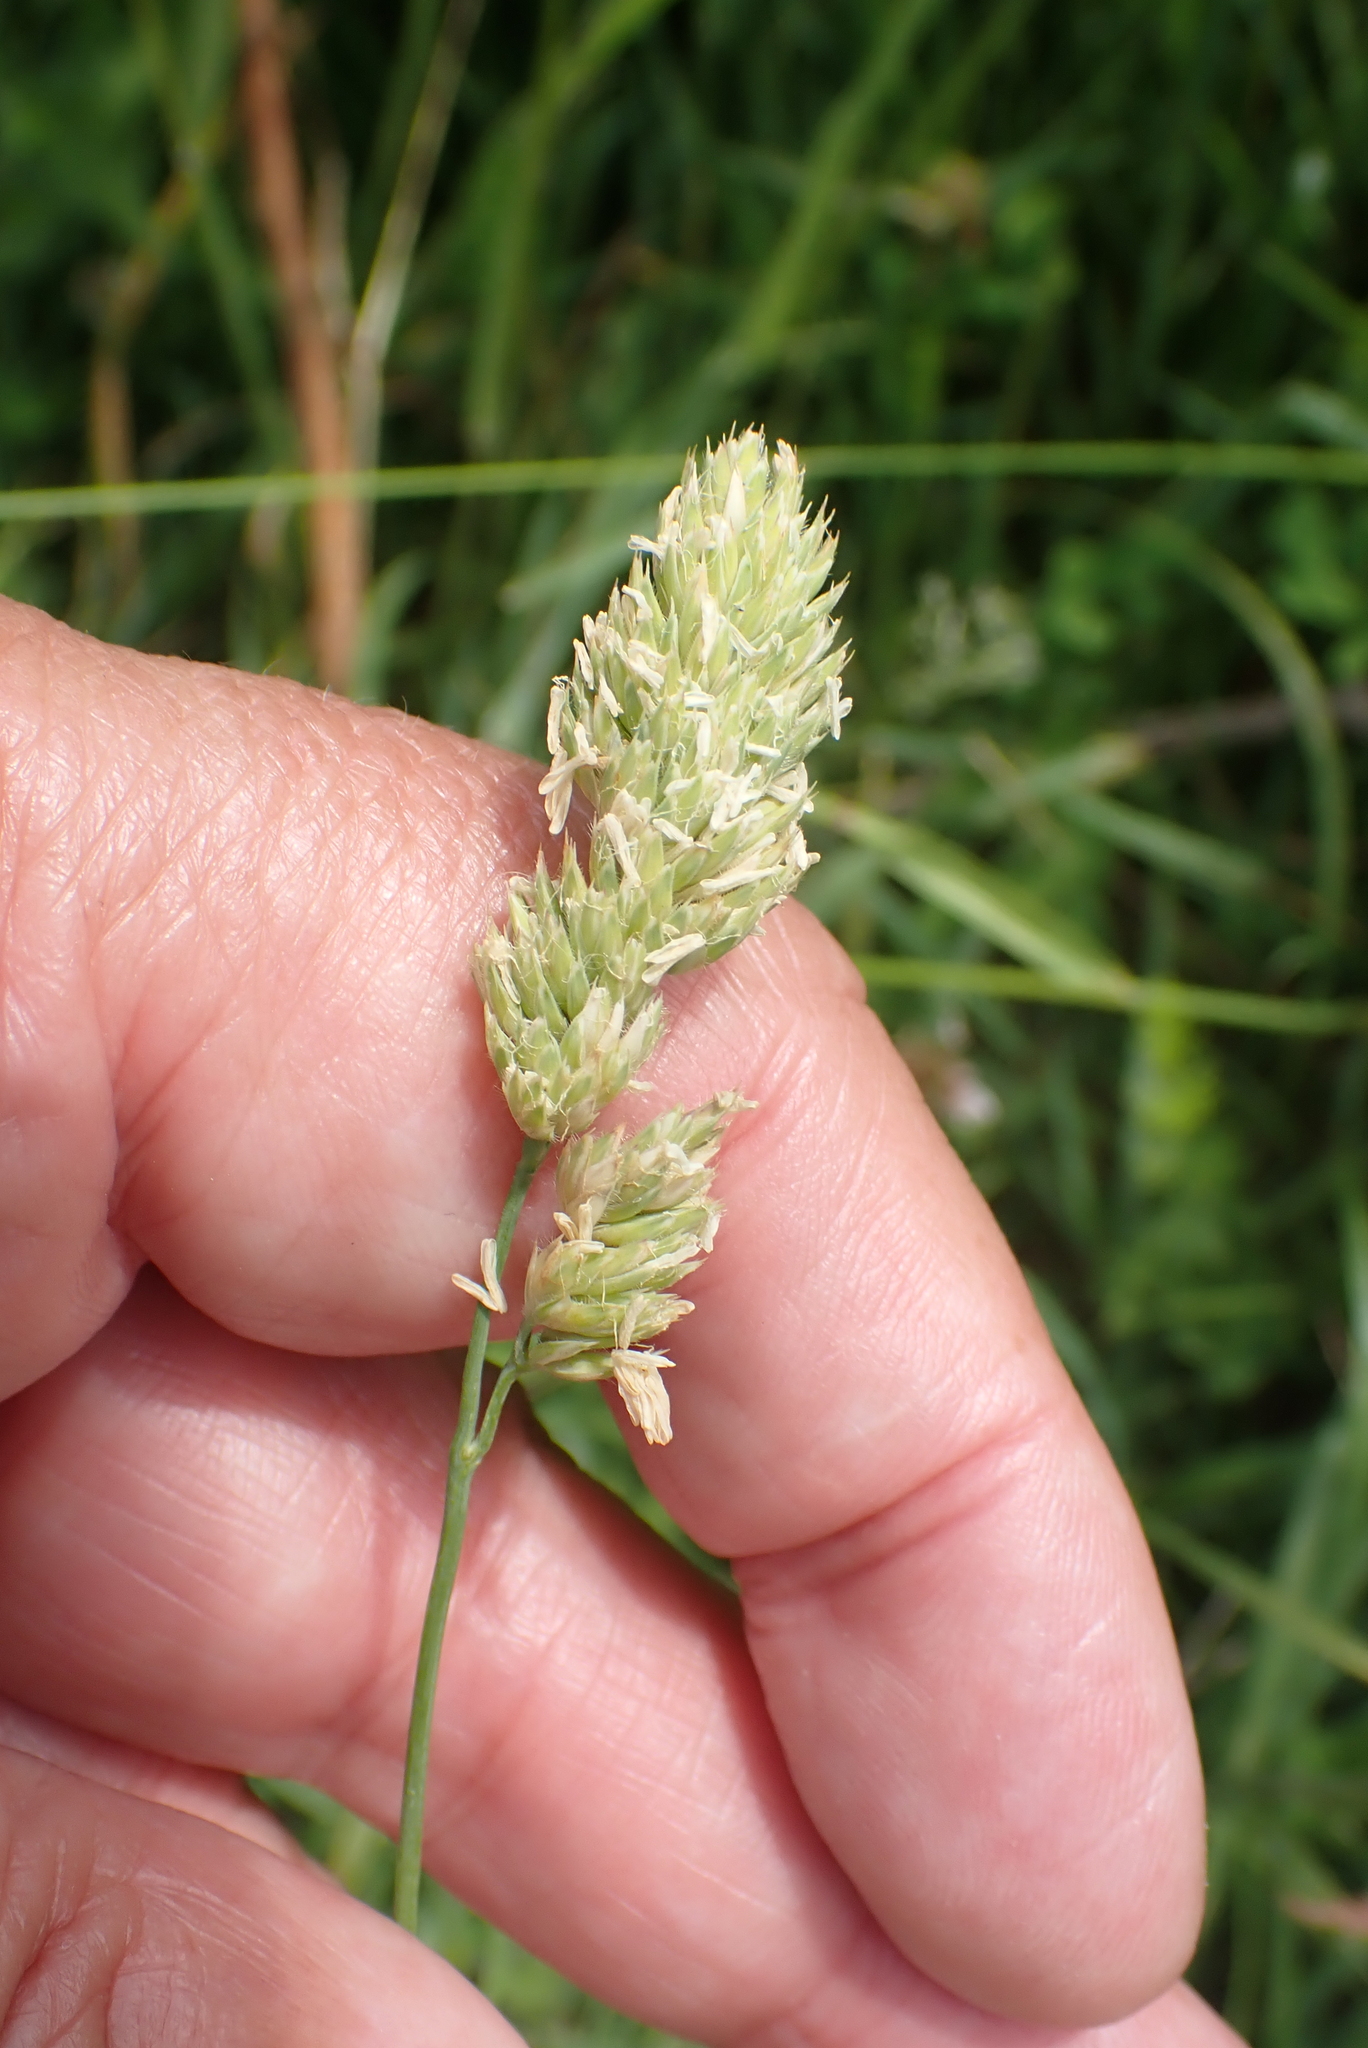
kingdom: Plantae
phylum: Tracheophyta
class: Liliopsida
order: Poales
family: Poaceae
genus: Dactylis
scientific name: Dactylis glomerata
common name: Orchardgrass
